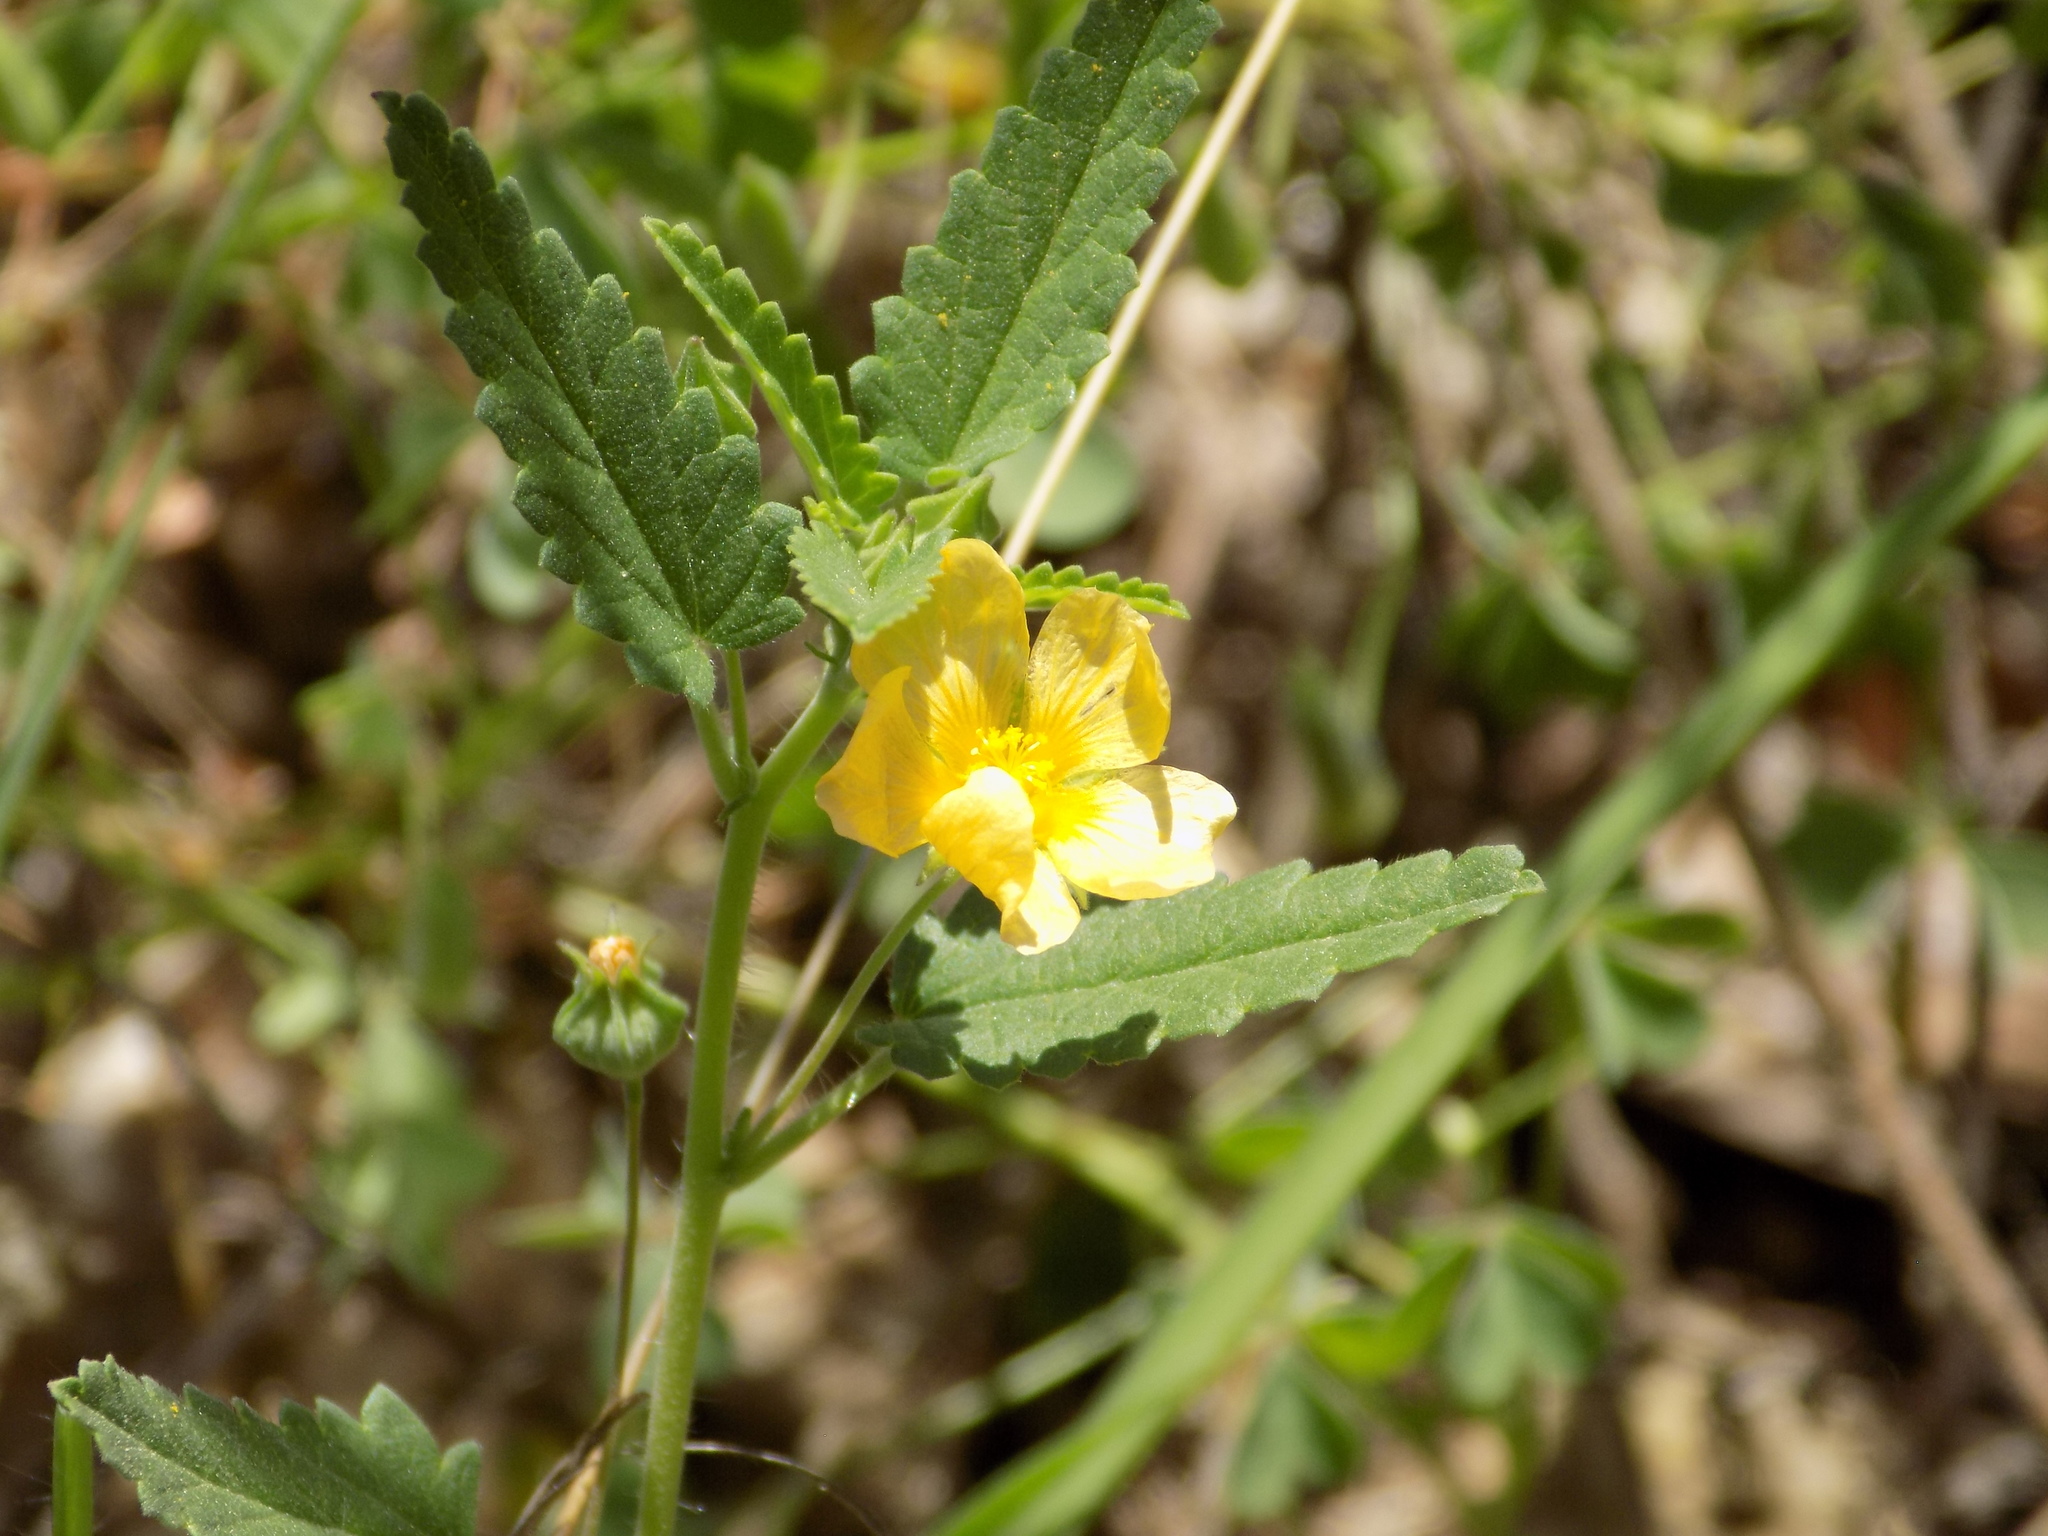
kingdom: Plantae
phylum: Tracheophyta
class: Magnoliopsida
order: Malvales
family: Malvaceae
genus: Sida
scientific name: Sida abutilifolia
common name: Spreading fanpetals
